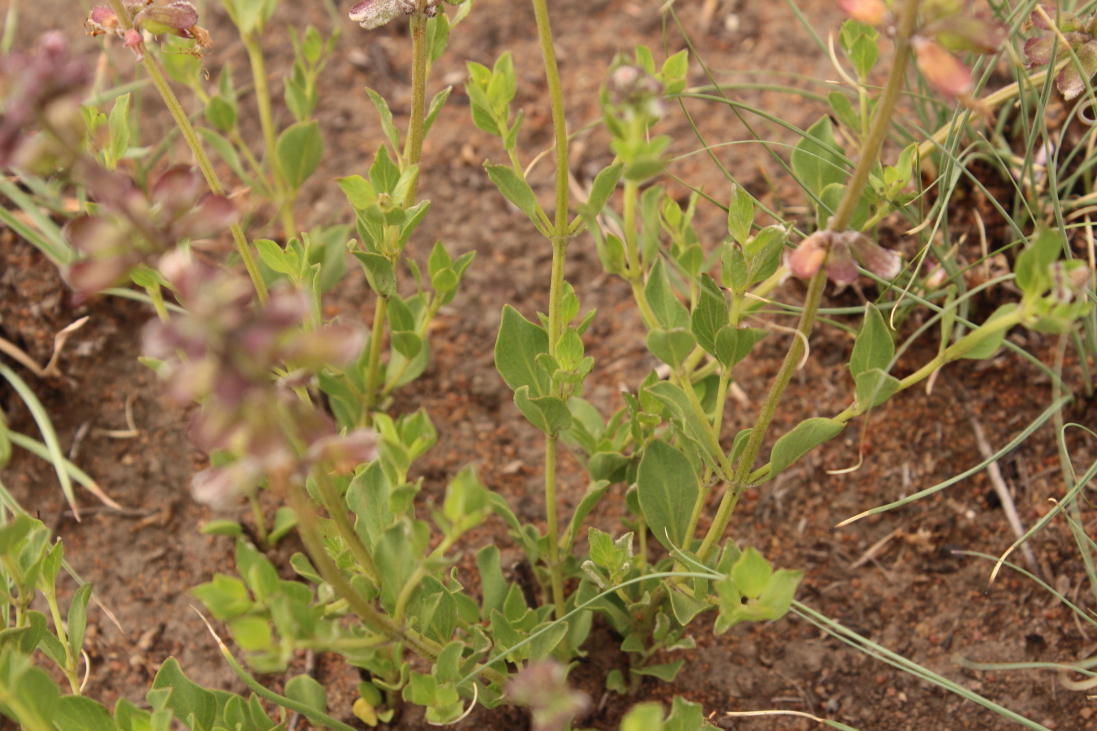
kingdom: Plantae
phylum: Tracheophyta
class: Magnoliopsida
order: Lamiales
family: Lamiaceae
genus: Ocimum
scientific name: Ocimum obovatum
